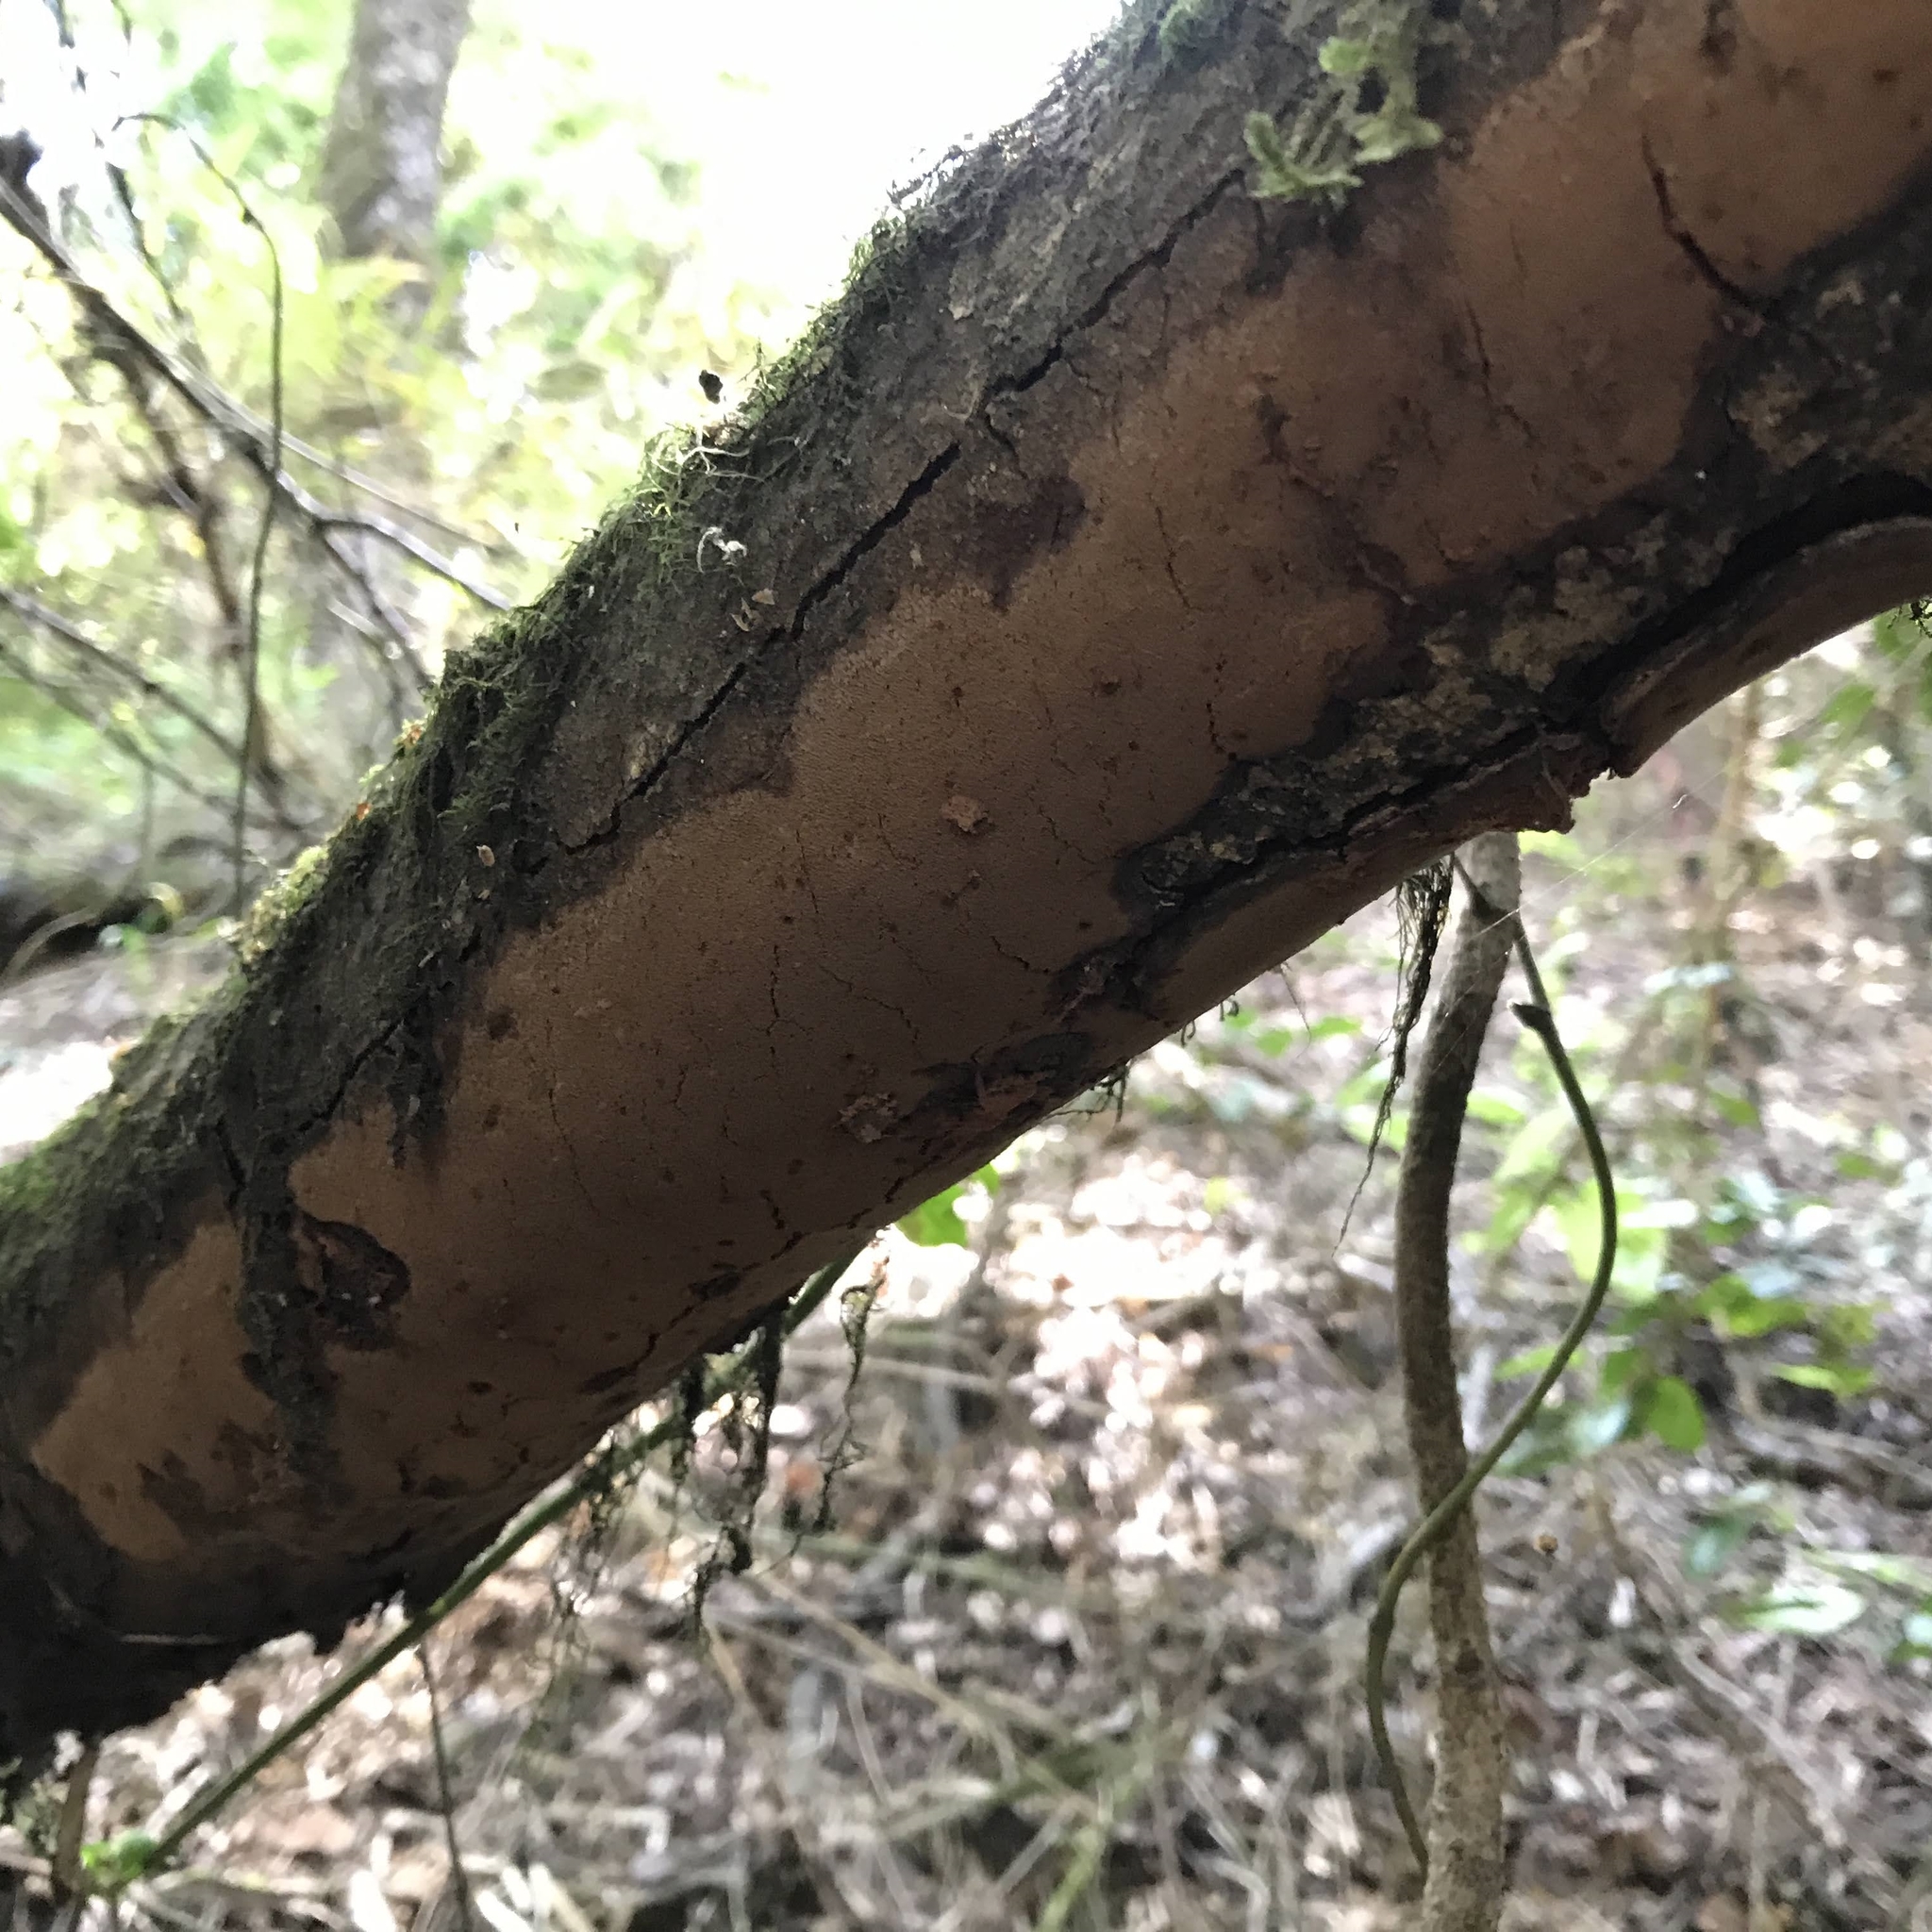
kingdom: Fungi
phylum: Basidiomycota
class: Agaricomycetes
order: Hymenochaetales
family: Hymenochaetaceae
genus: Fomitiporella
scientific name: Fomitiporella coruscans
